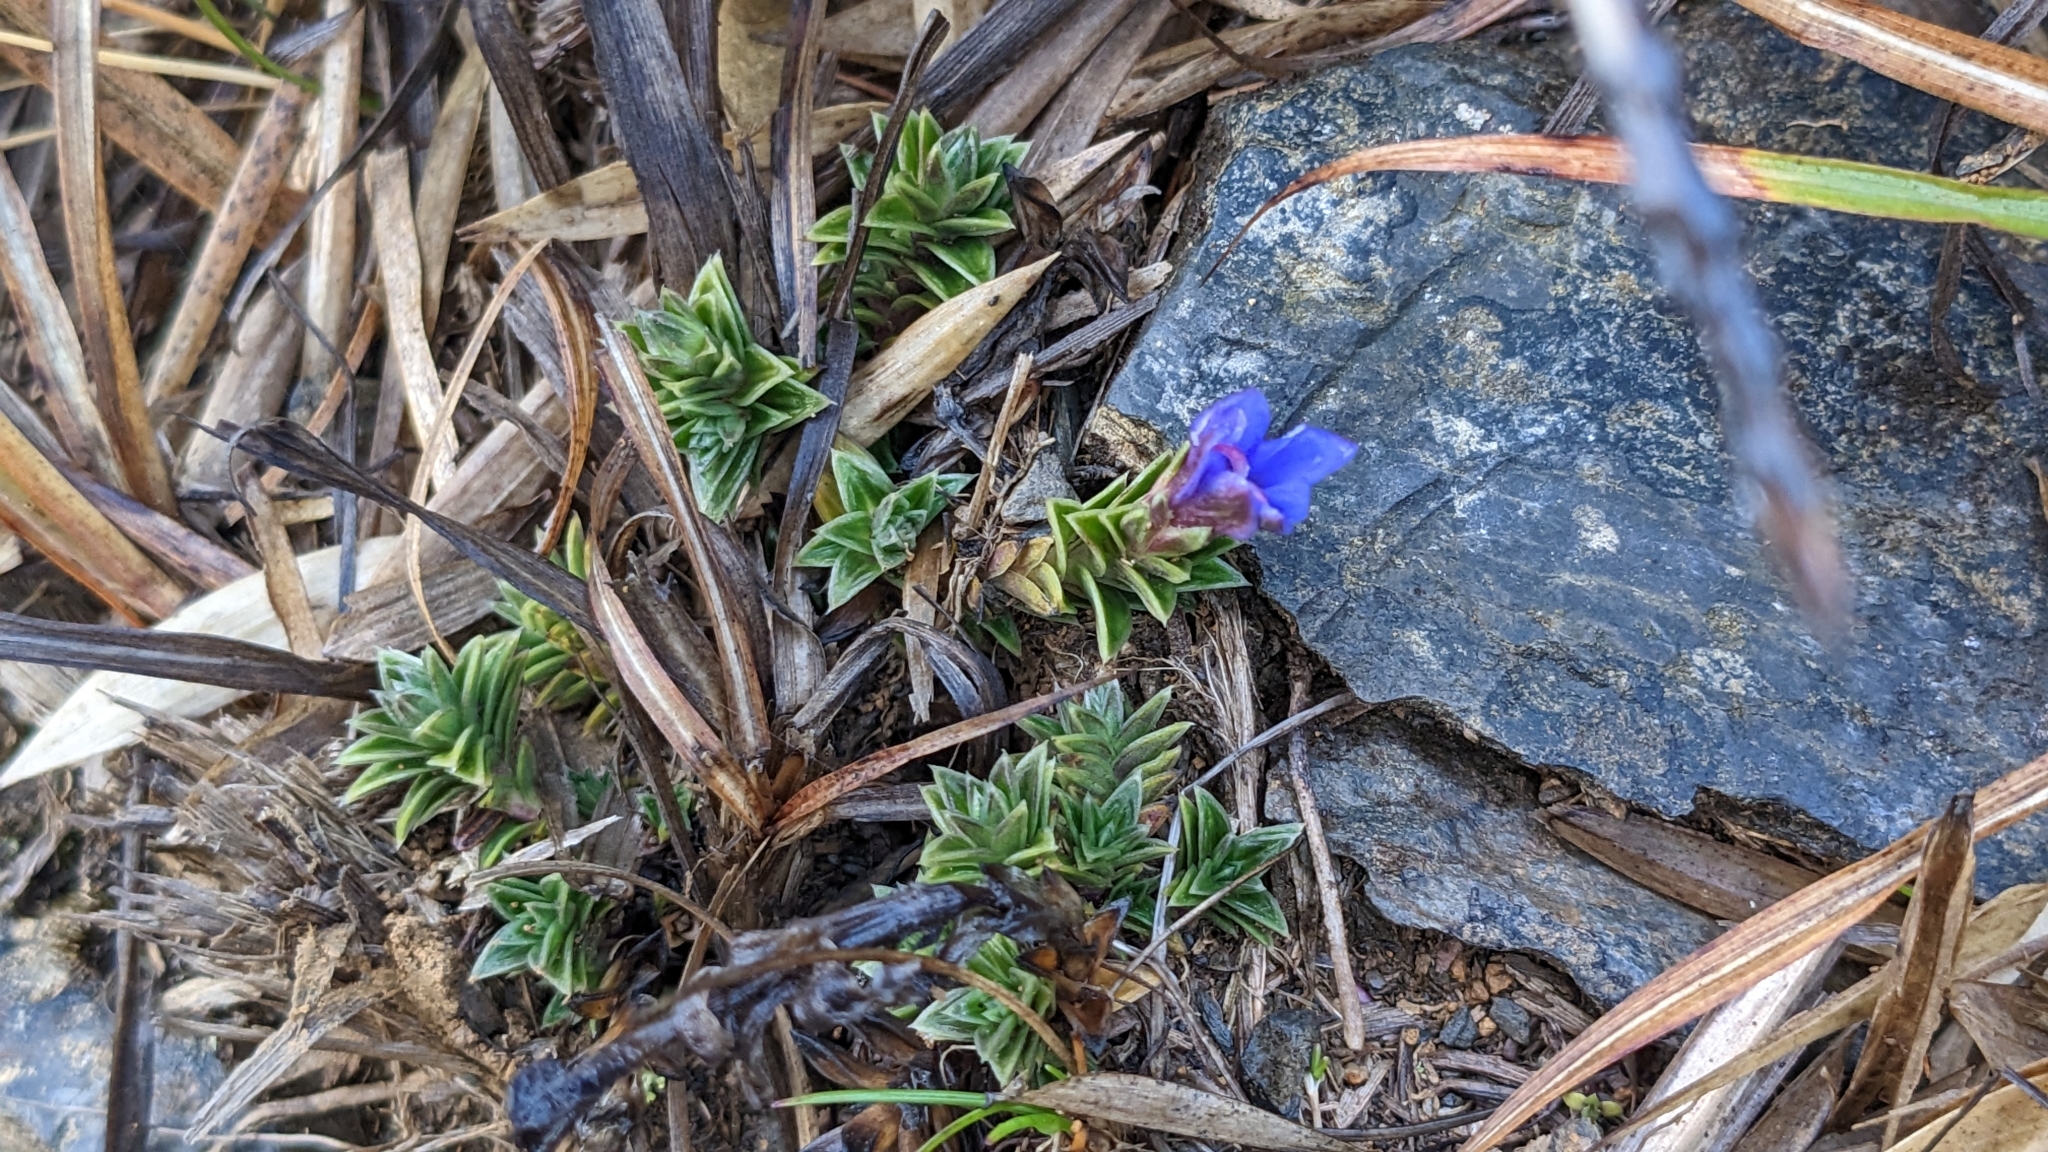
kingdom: Plantae
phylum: Tracheophyta
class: Magnoliopsida
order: Gentianales
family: Gentianaceae
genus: Gentiana
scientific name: Gentiana arisanensis
